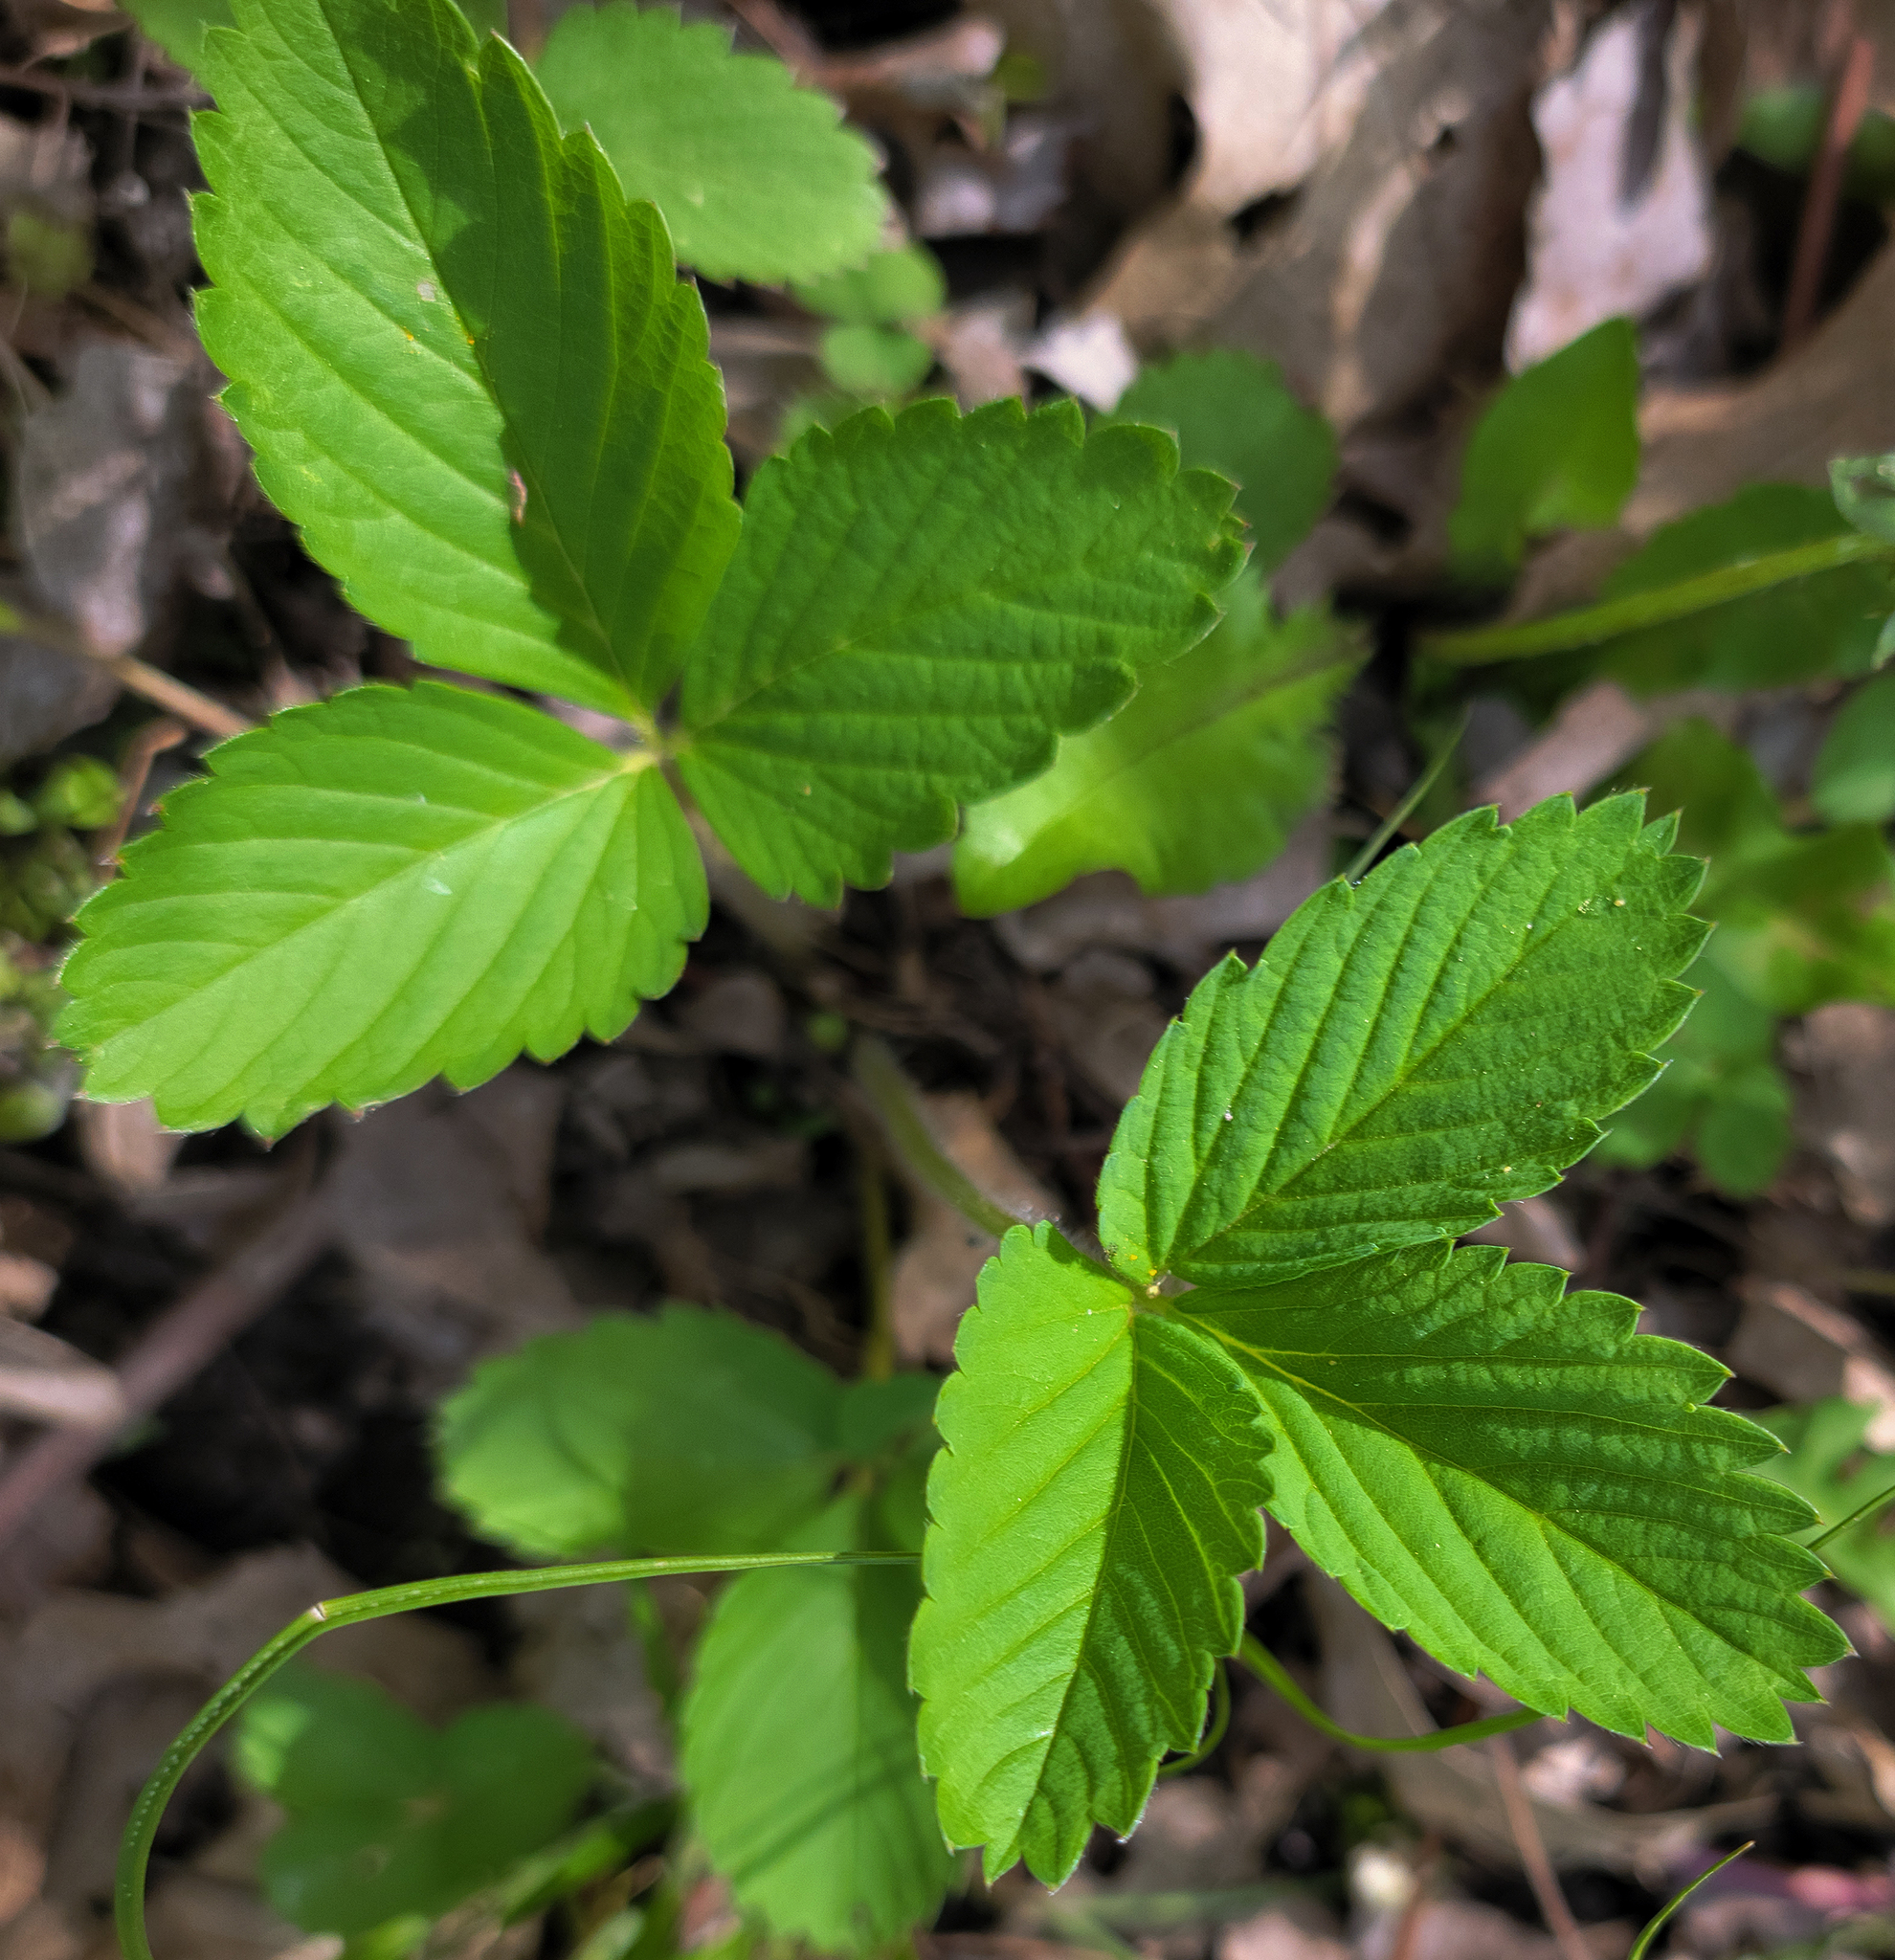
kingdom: Plantae
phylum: Tracheophyta
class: Magnoliopsida
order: Rosales
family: Rosaceae
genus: Fragaria
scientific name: Fragaria virginiana
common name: Thickleaved wild strawberry
